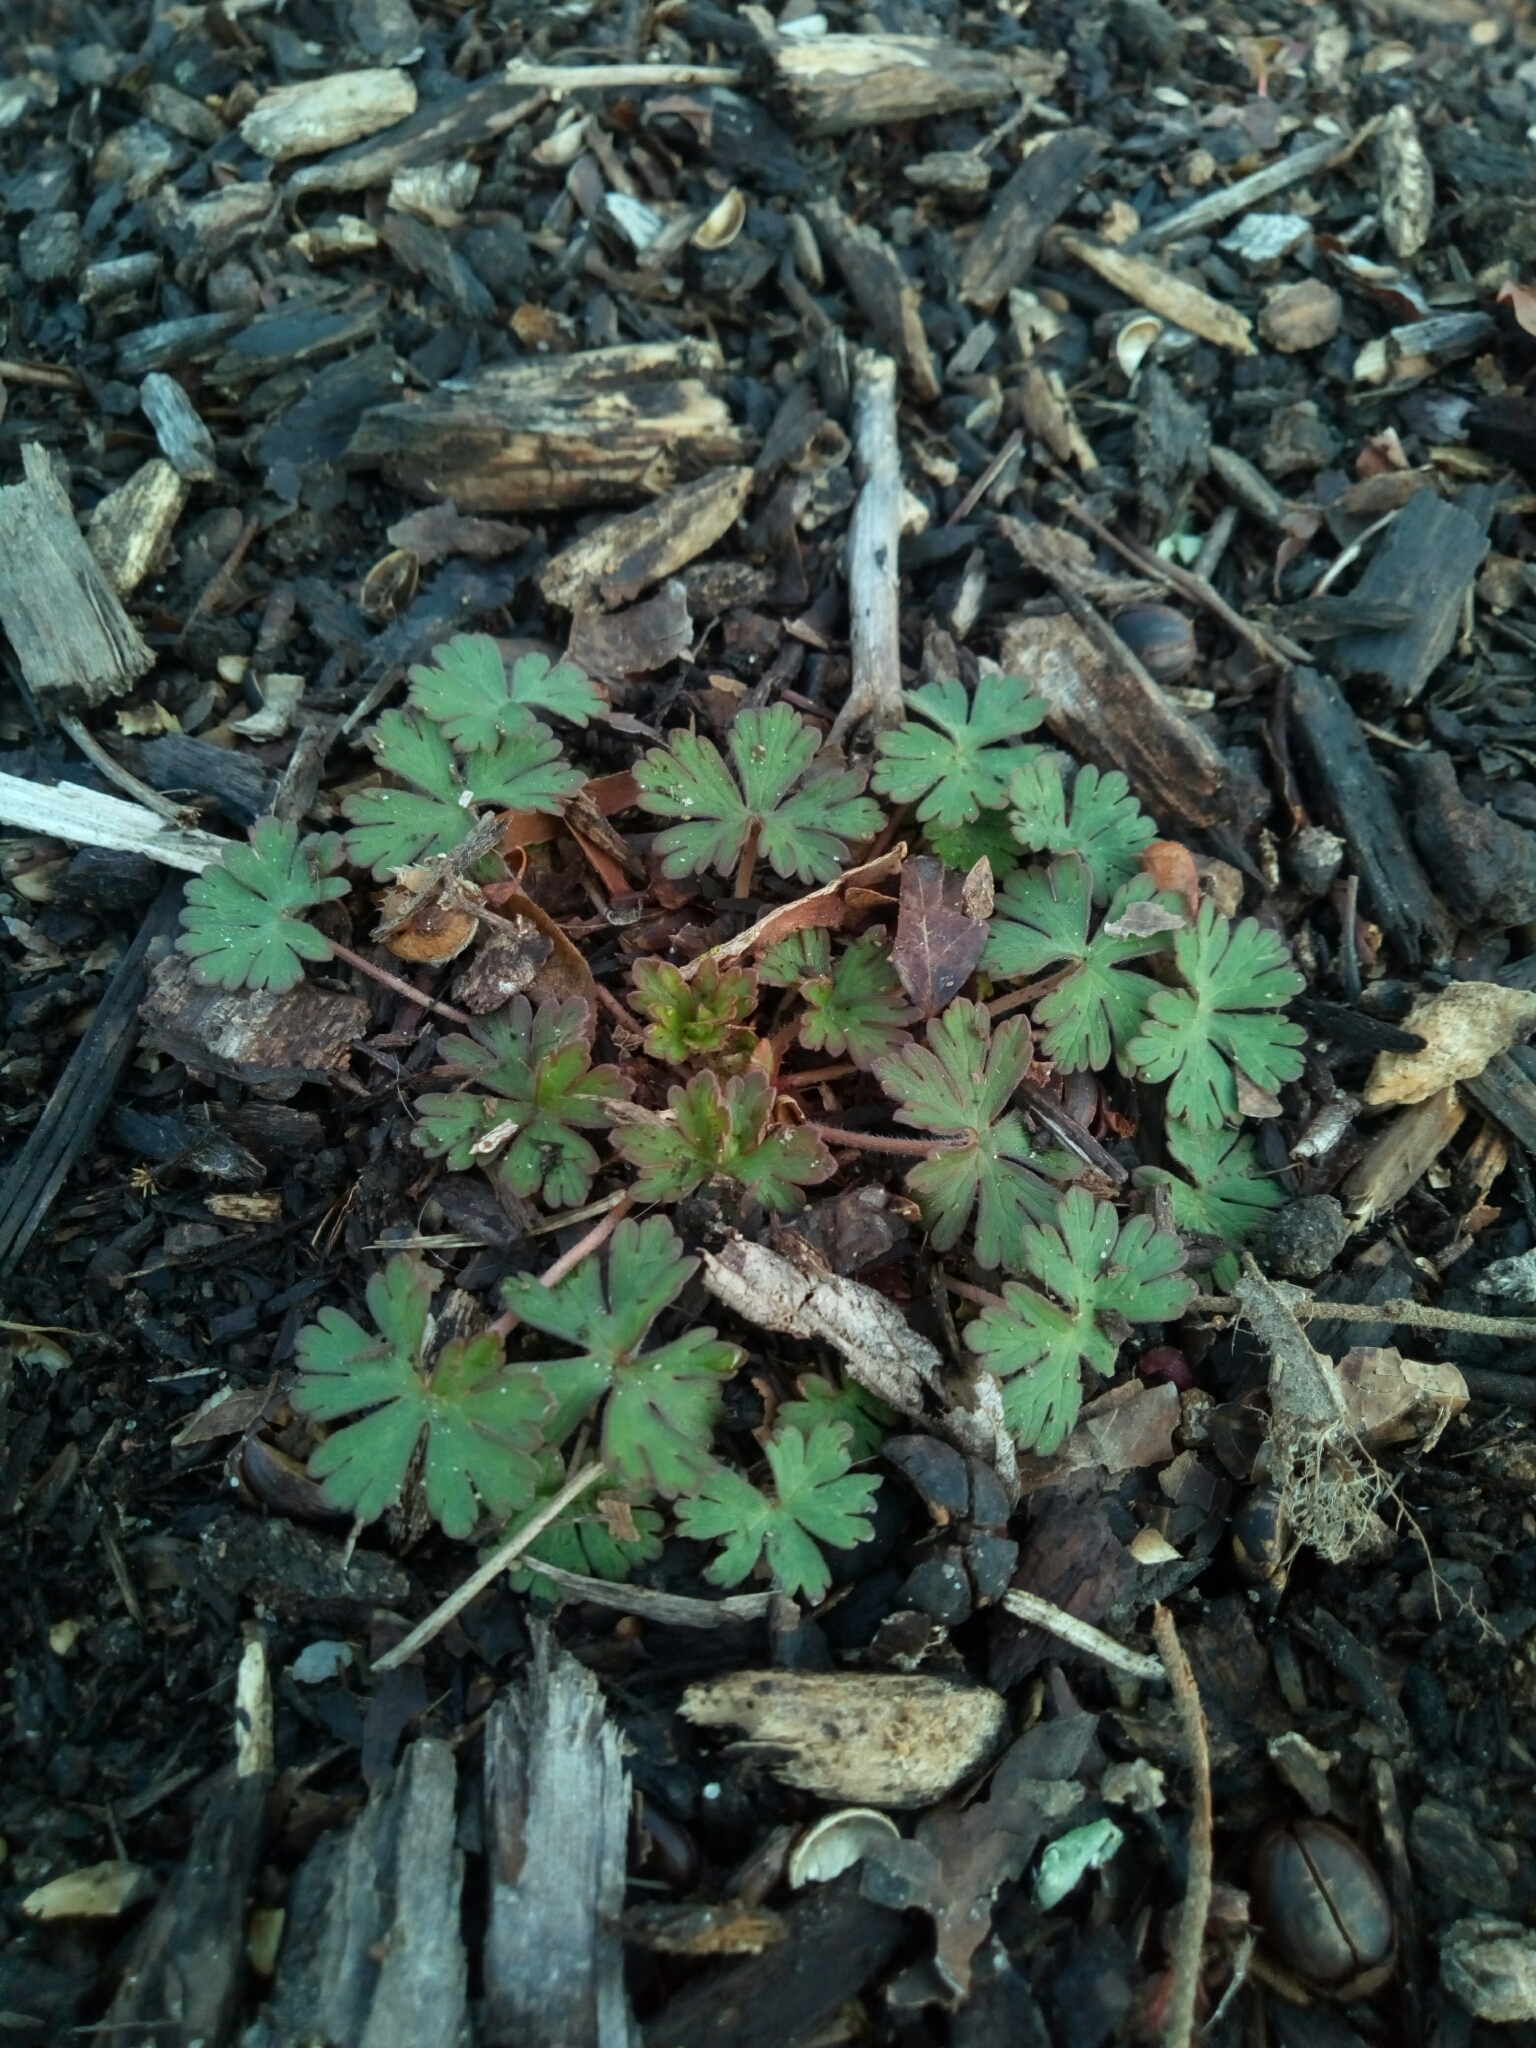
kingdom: Plantae
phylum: Tracheophyta
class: Magnoliopsida
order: Geraniales
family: Geraniaceae
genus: Geranium
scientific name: Geranium carolinianum
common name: Carolina crane's-bill
